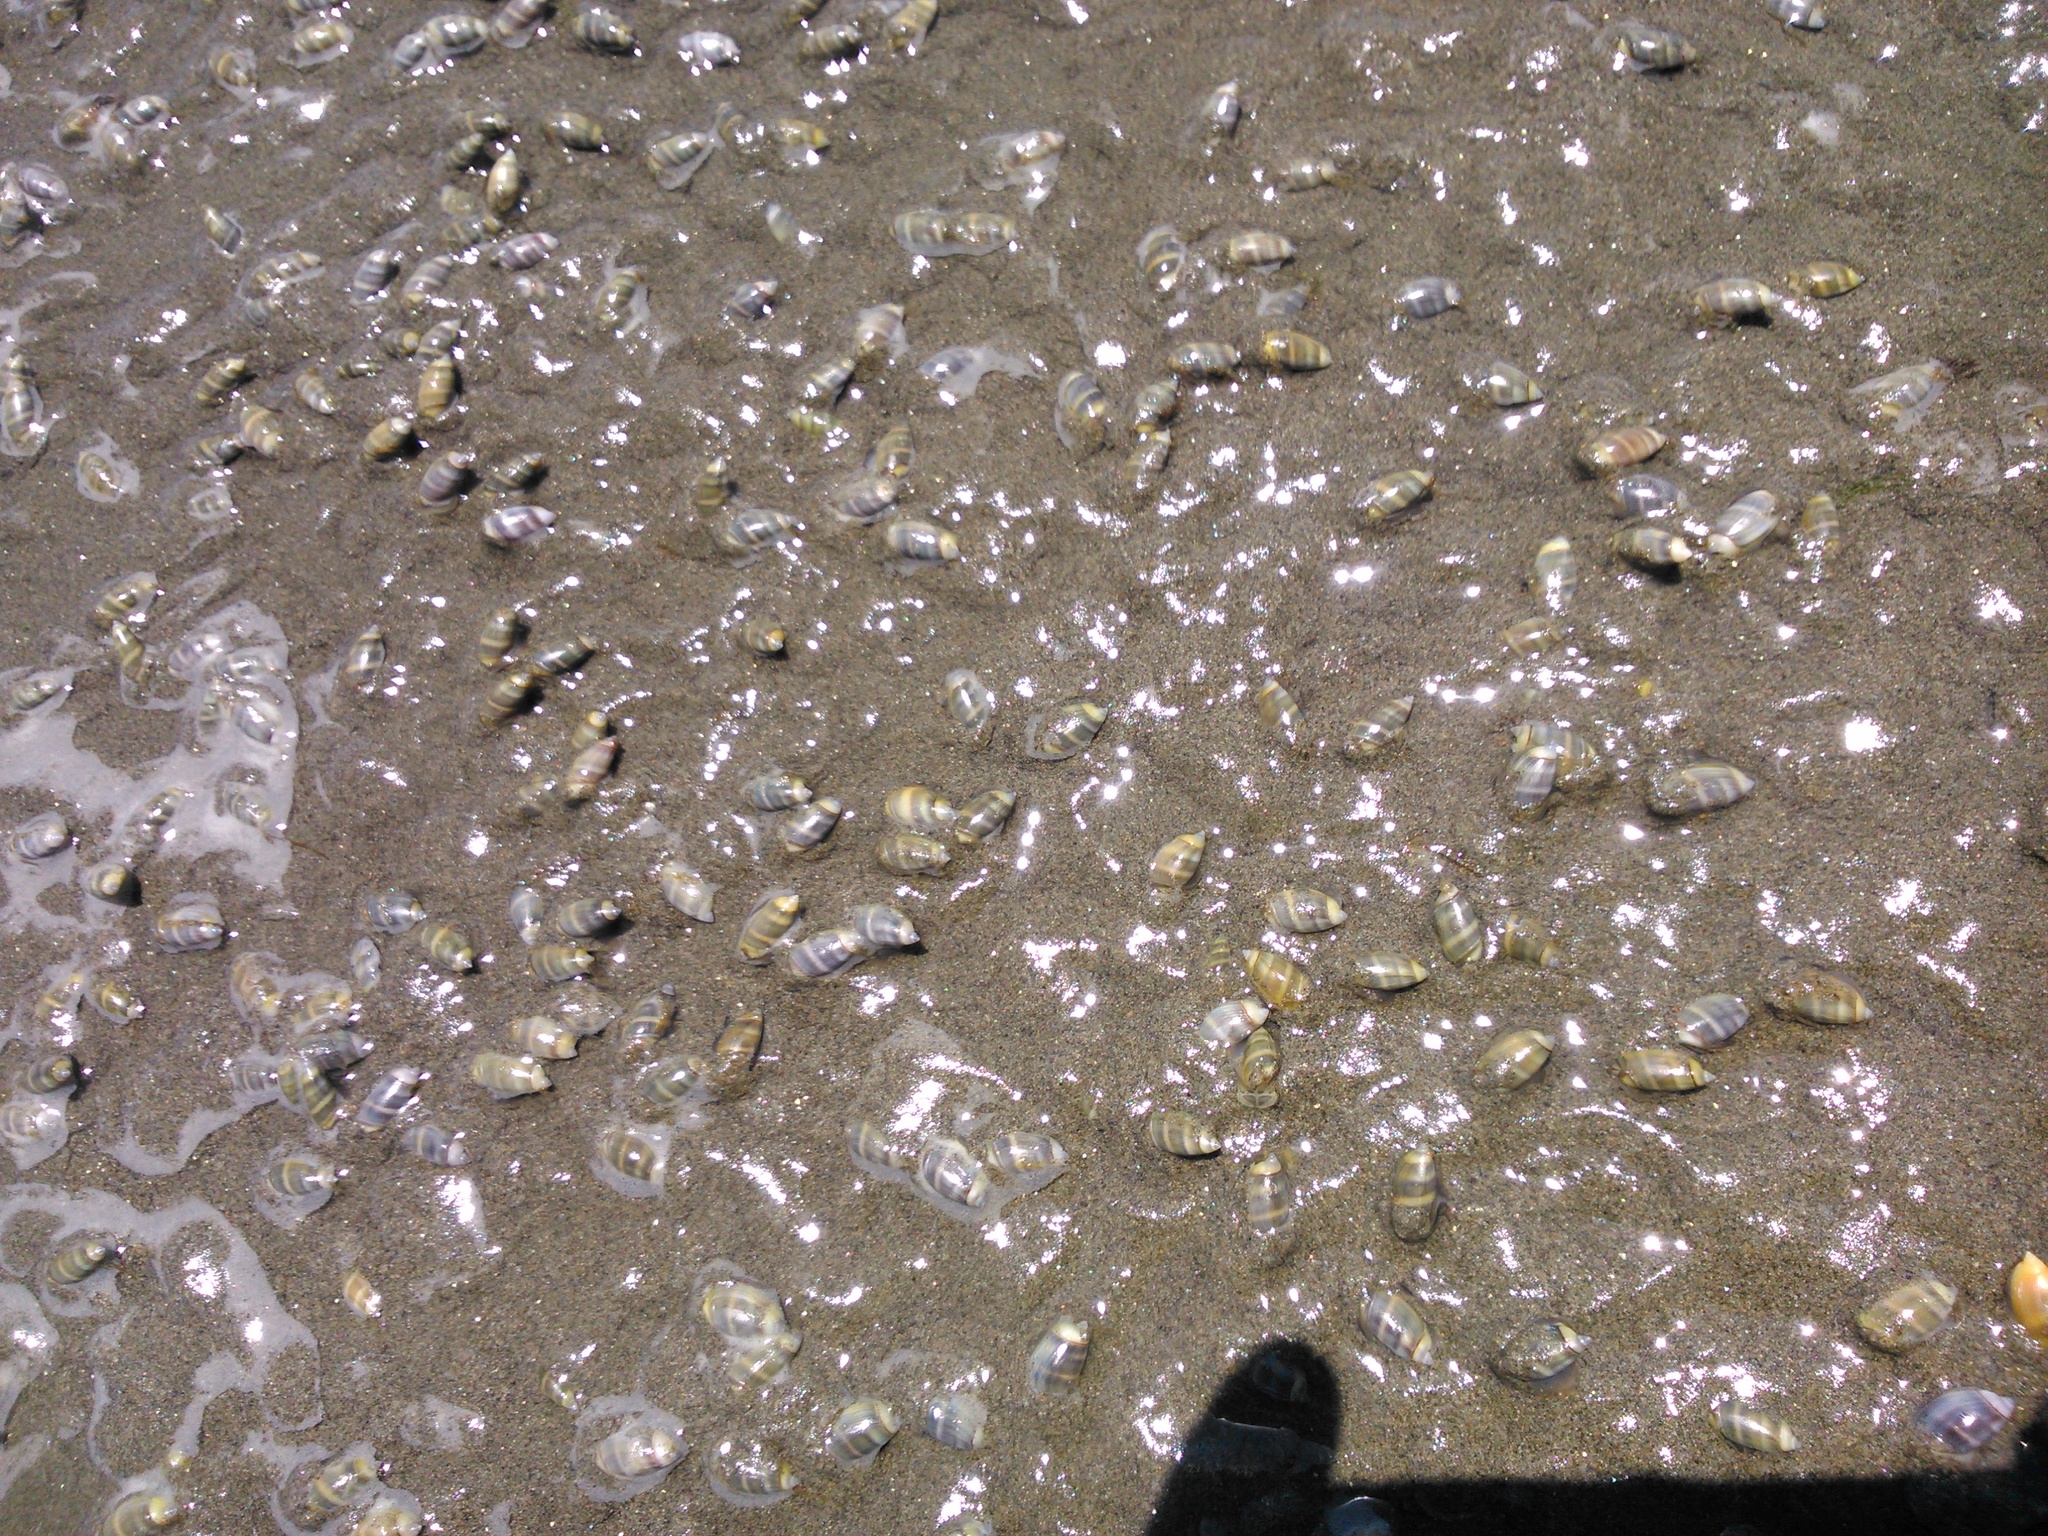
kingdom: Animalia
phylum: Mollusca
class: Gastropoda
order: Neogastropoda
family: Olividae
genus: Pachyoliva
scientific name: Pachyoliva semistriata
